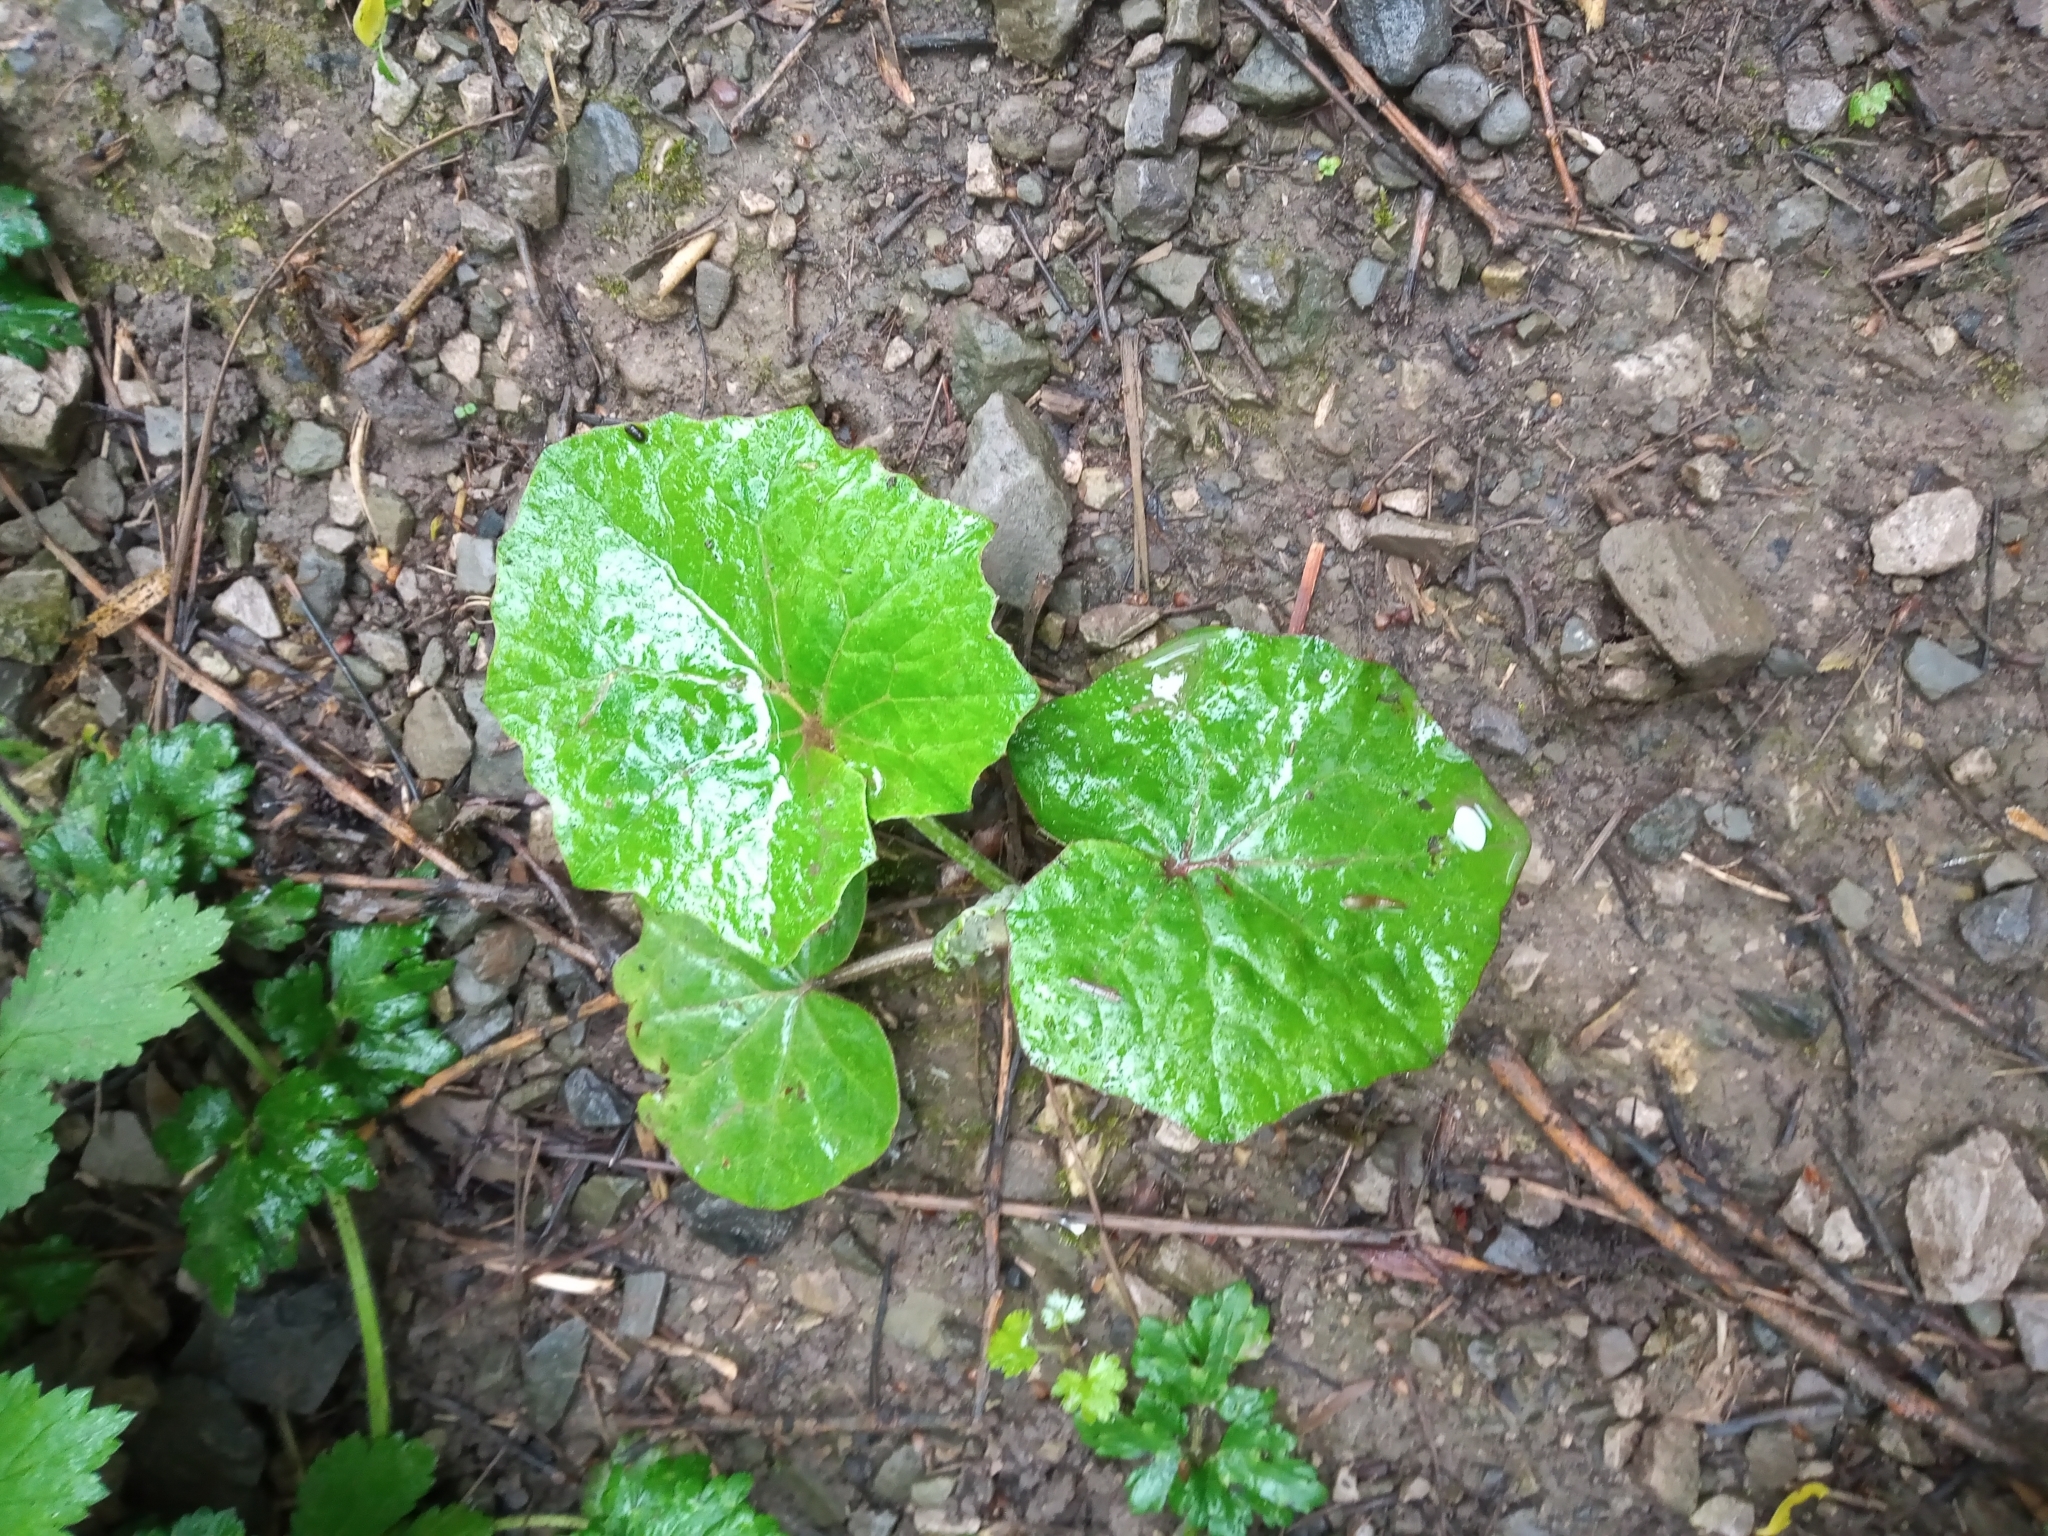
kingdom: Plantae
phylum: Tracheophyta
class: Magnoliopsida
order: Asterales
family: Asteraceae
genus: Tussilago
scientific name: Tussilago farfara
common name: Coltsfoot
